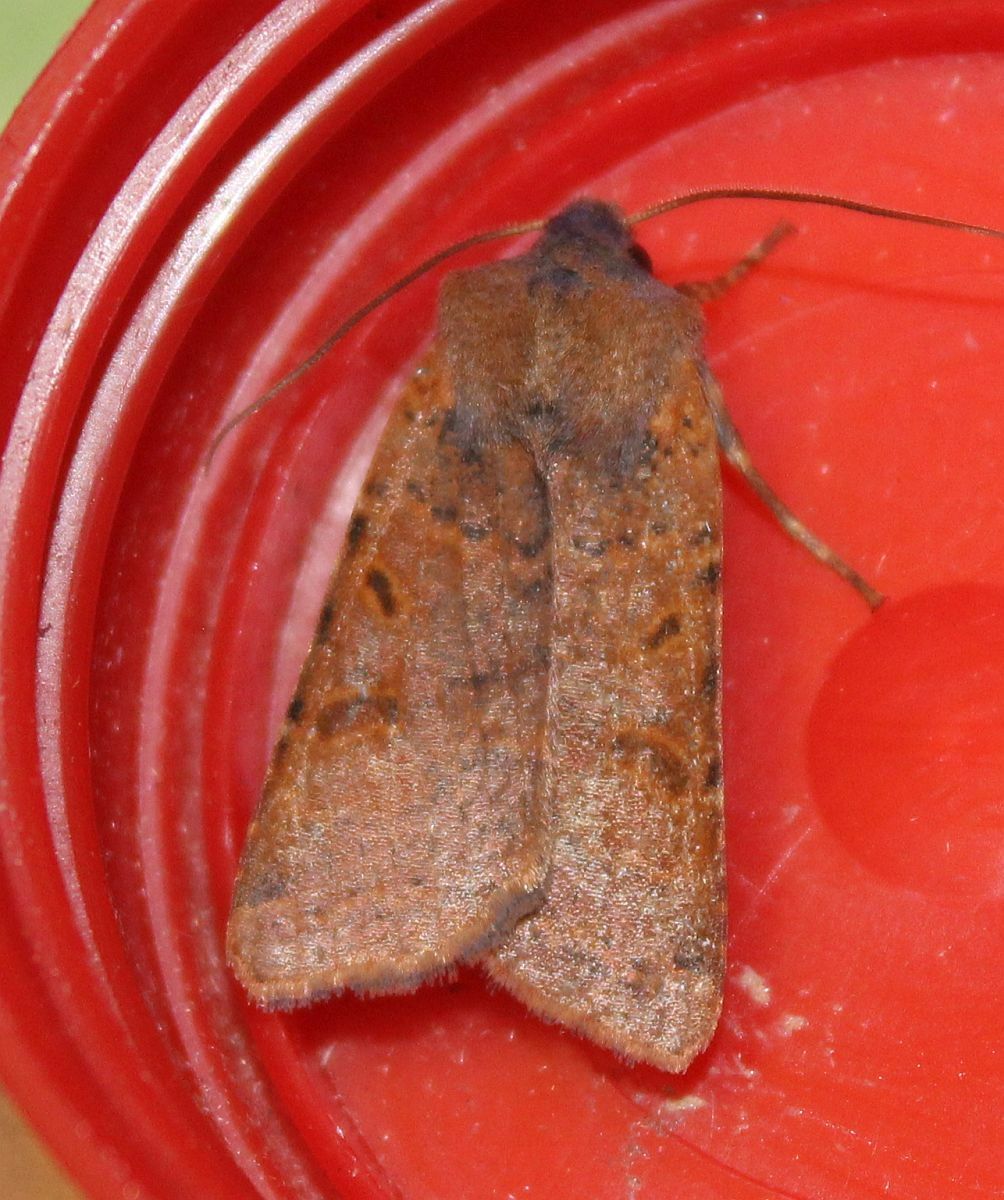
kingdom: Animalia
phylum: Arthropoda
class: Insecta
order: Lepidoptera
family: Noctuidae
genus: Agrochola
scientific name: Agrochola lychnidis
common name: Beaded chestnut
